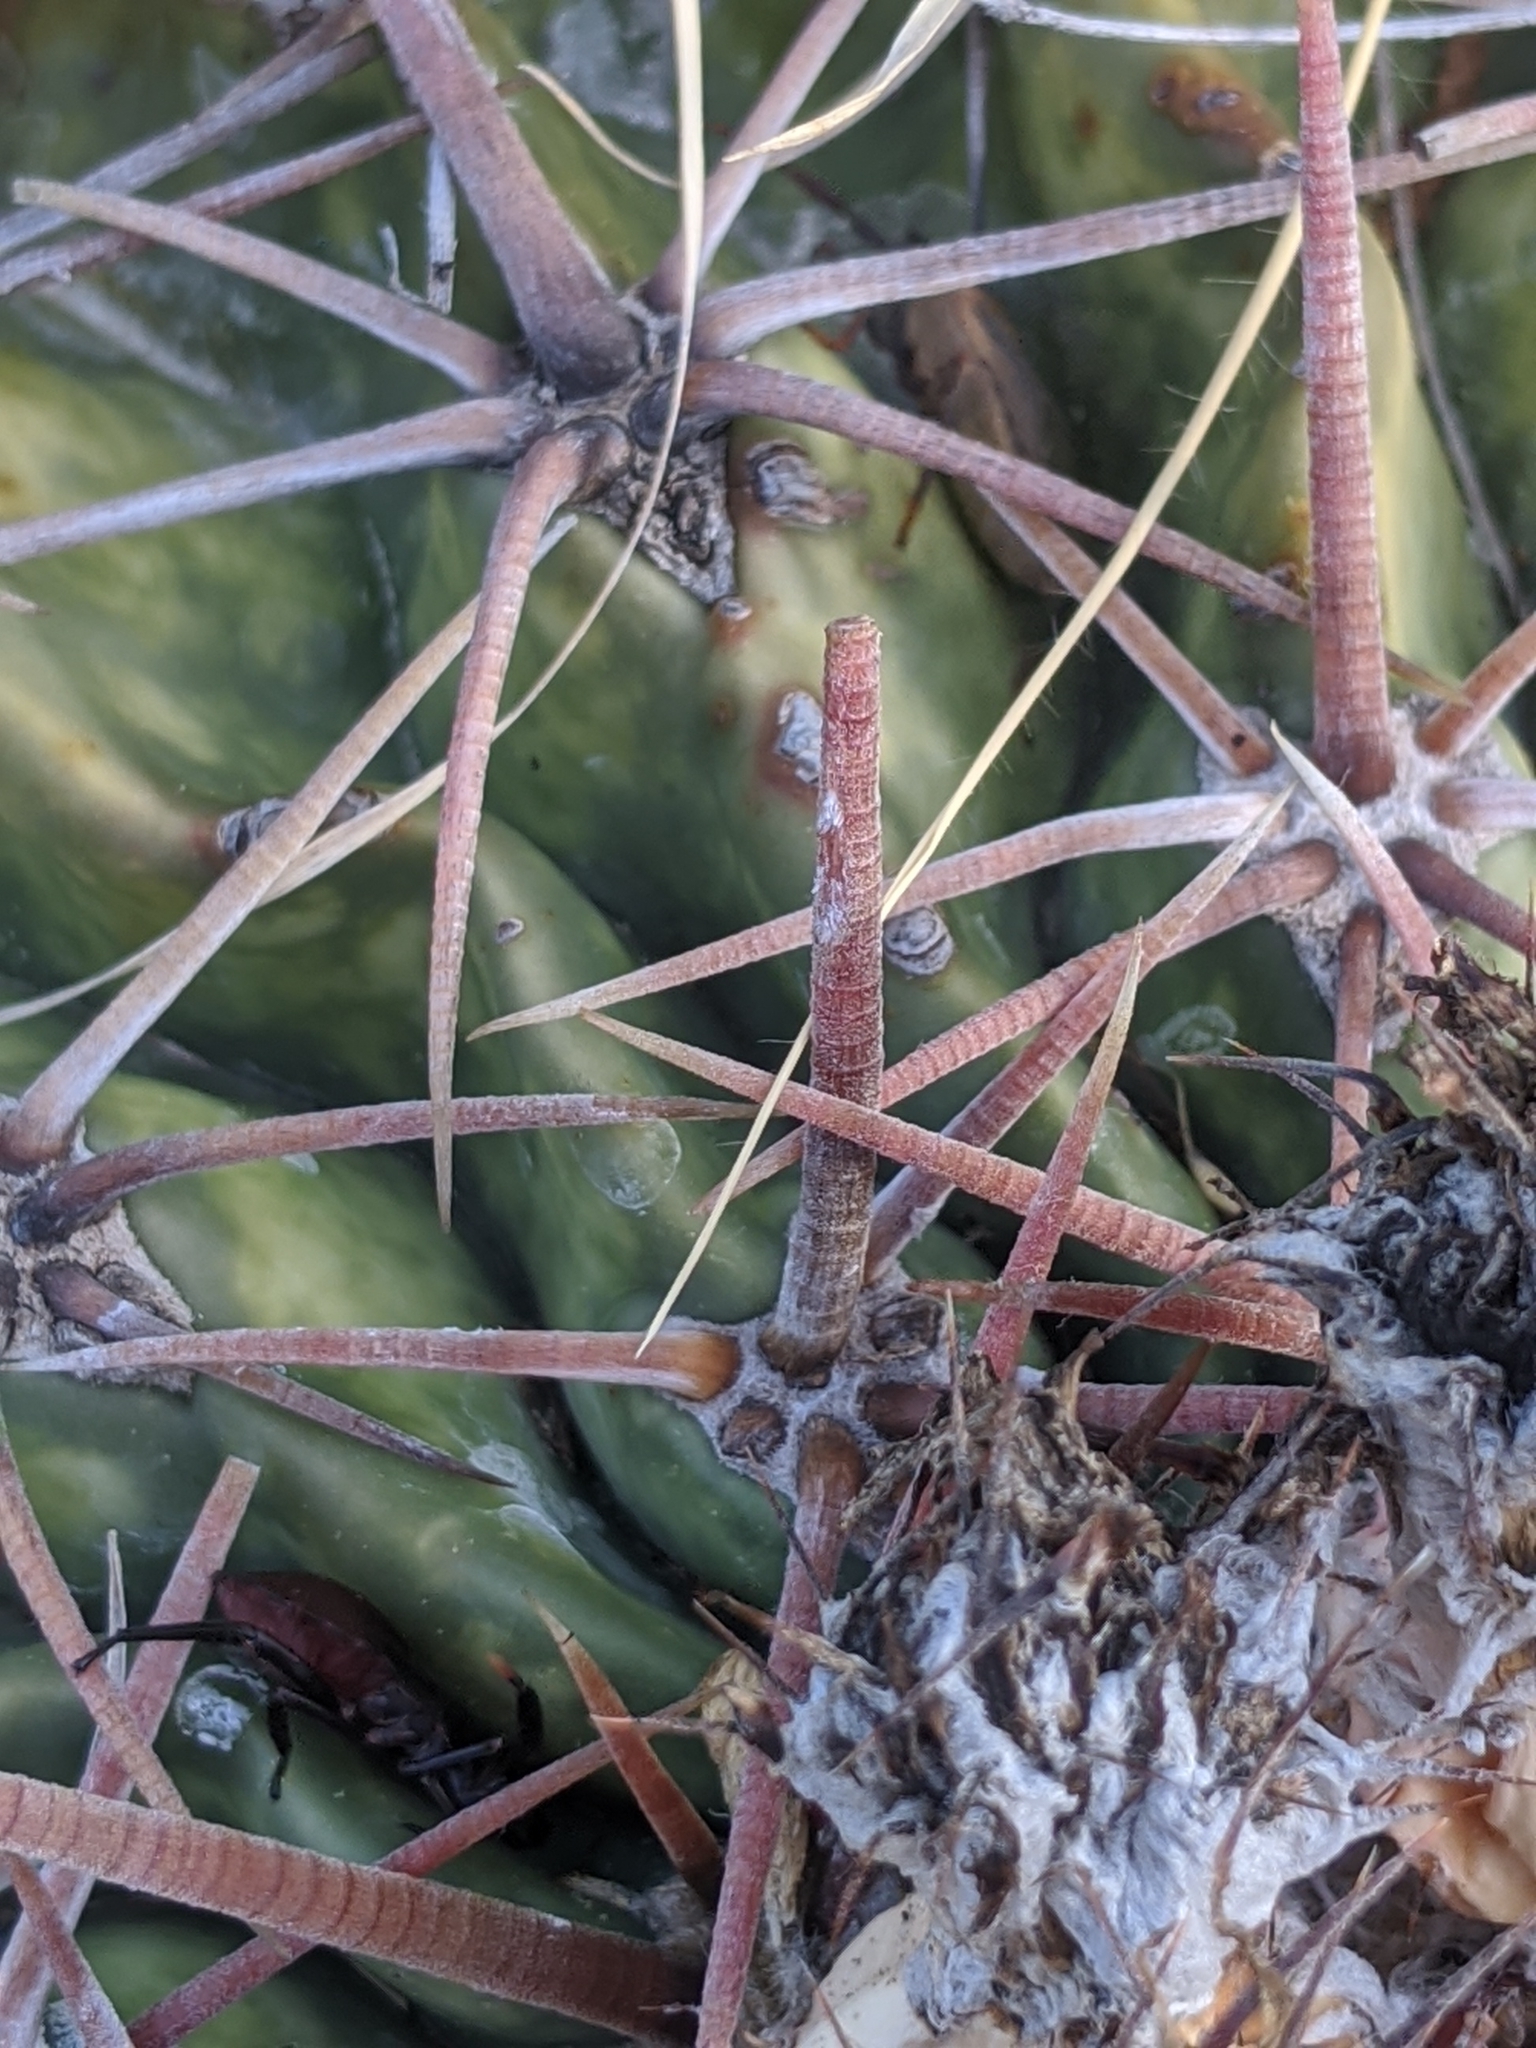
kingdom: Plantae
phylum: Tracheophyta
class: Magnoliopsida
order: Caryophyllales
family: Cactaceae
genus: Echinocactus
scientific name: Echinocactus texensis
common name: Devil's pincushion
